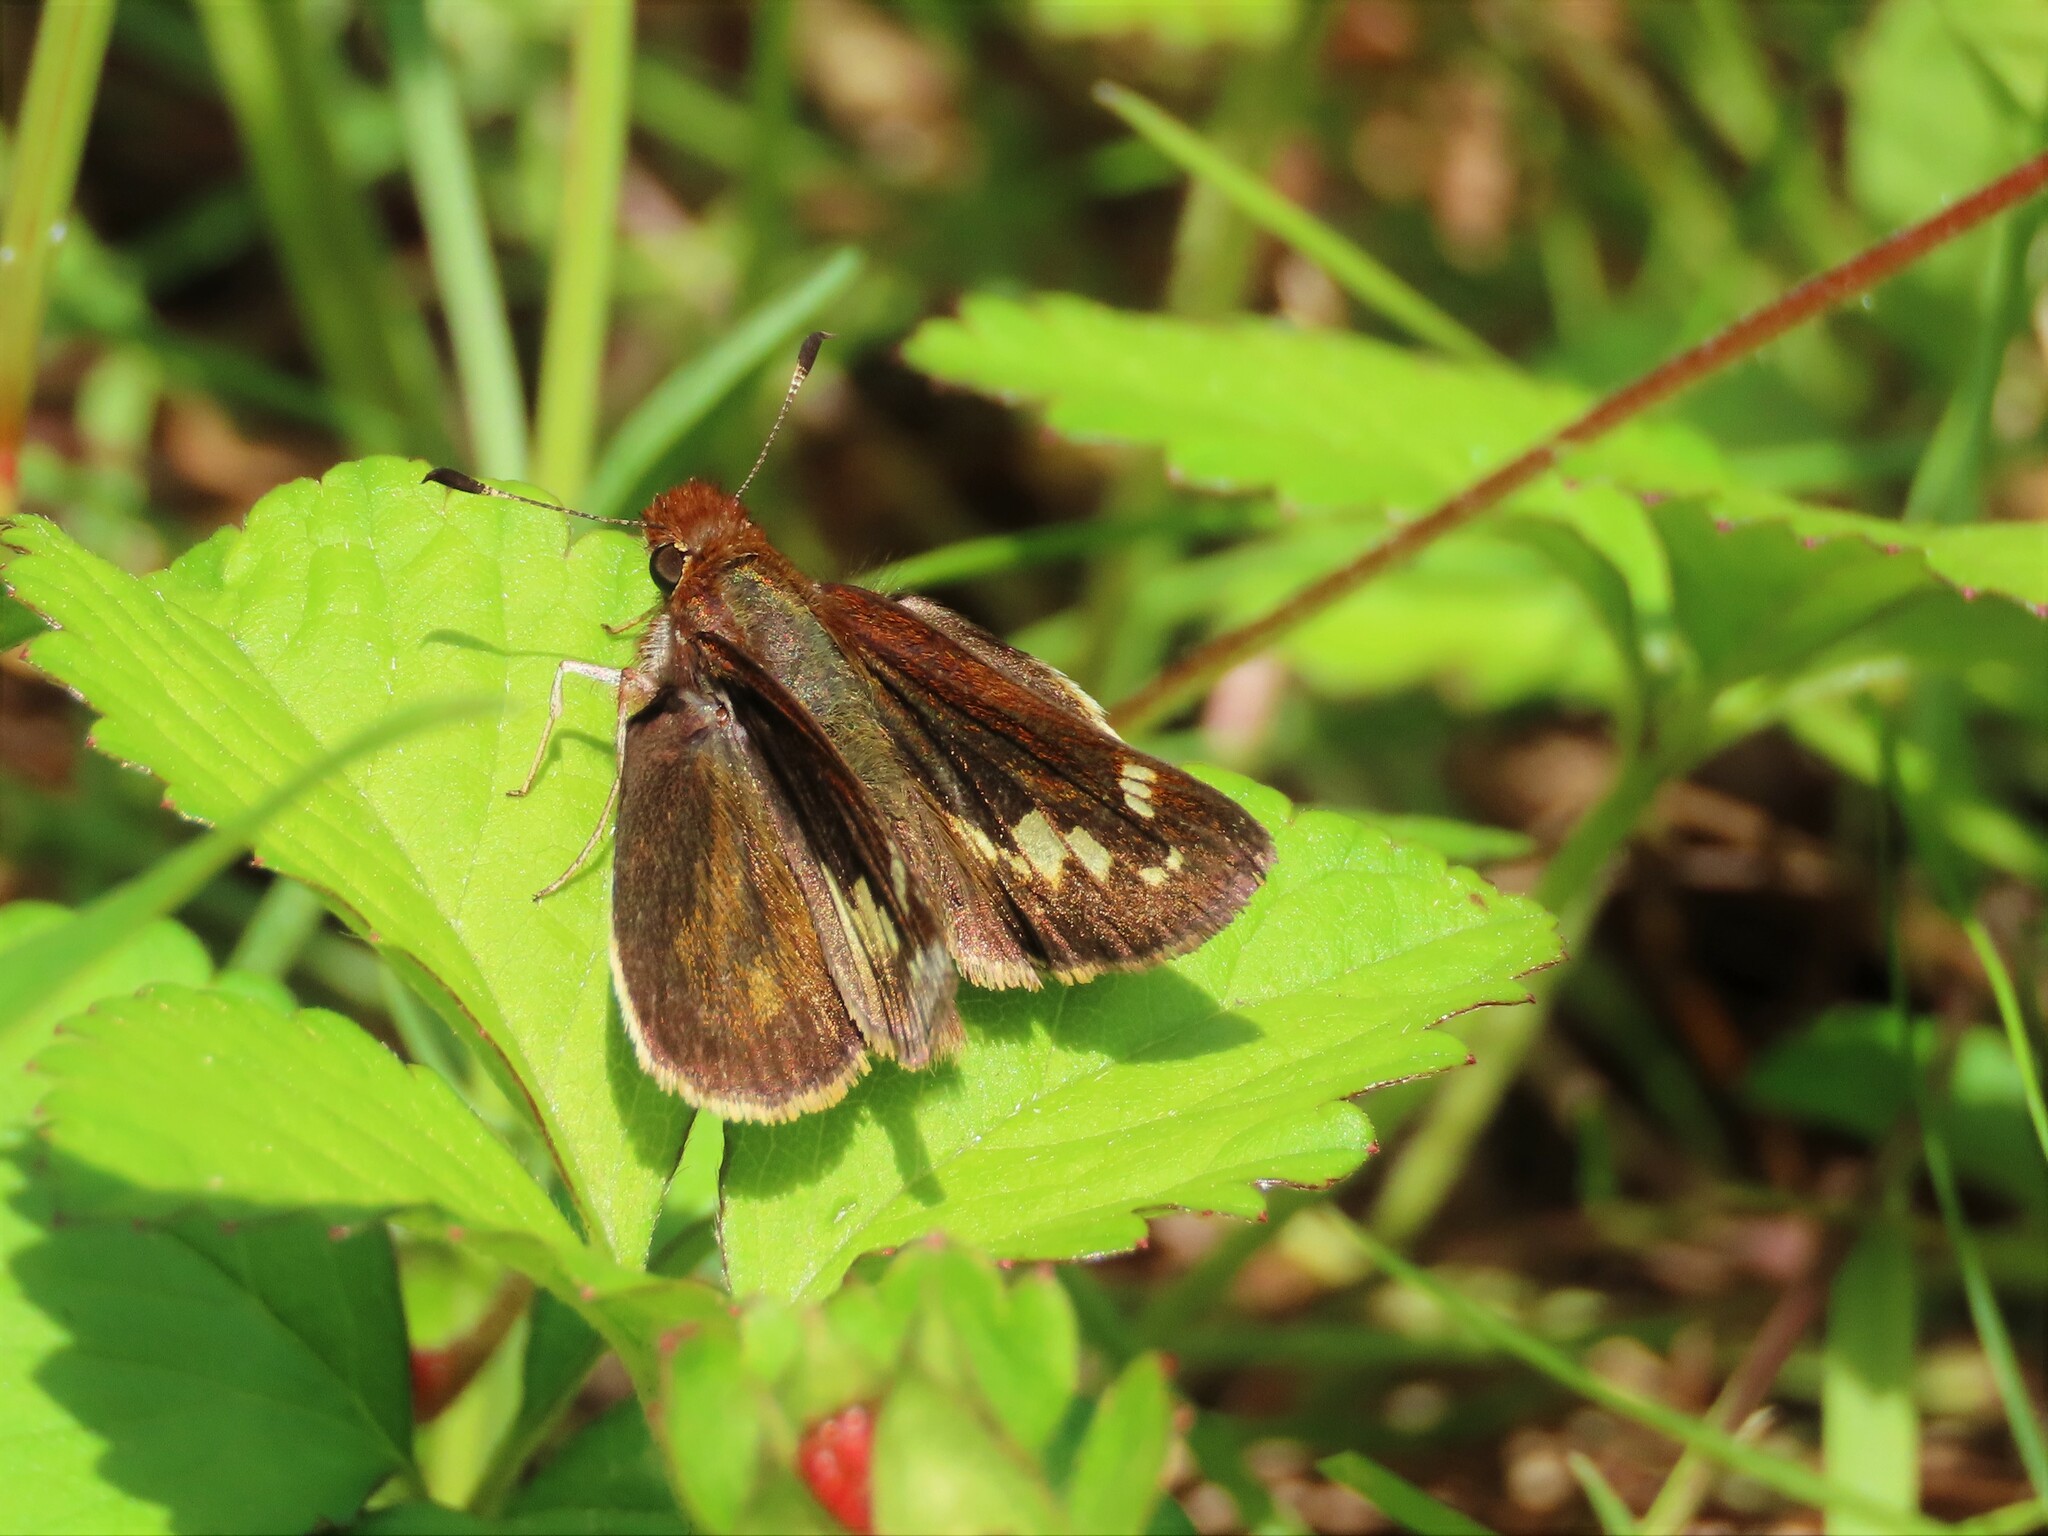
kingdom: Animalia
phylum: Arthropoda
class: Insecta
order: Lepidoptera
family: Hesperiidae
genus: Lon
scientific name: Lon zabulon
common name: Zabulon skipper
